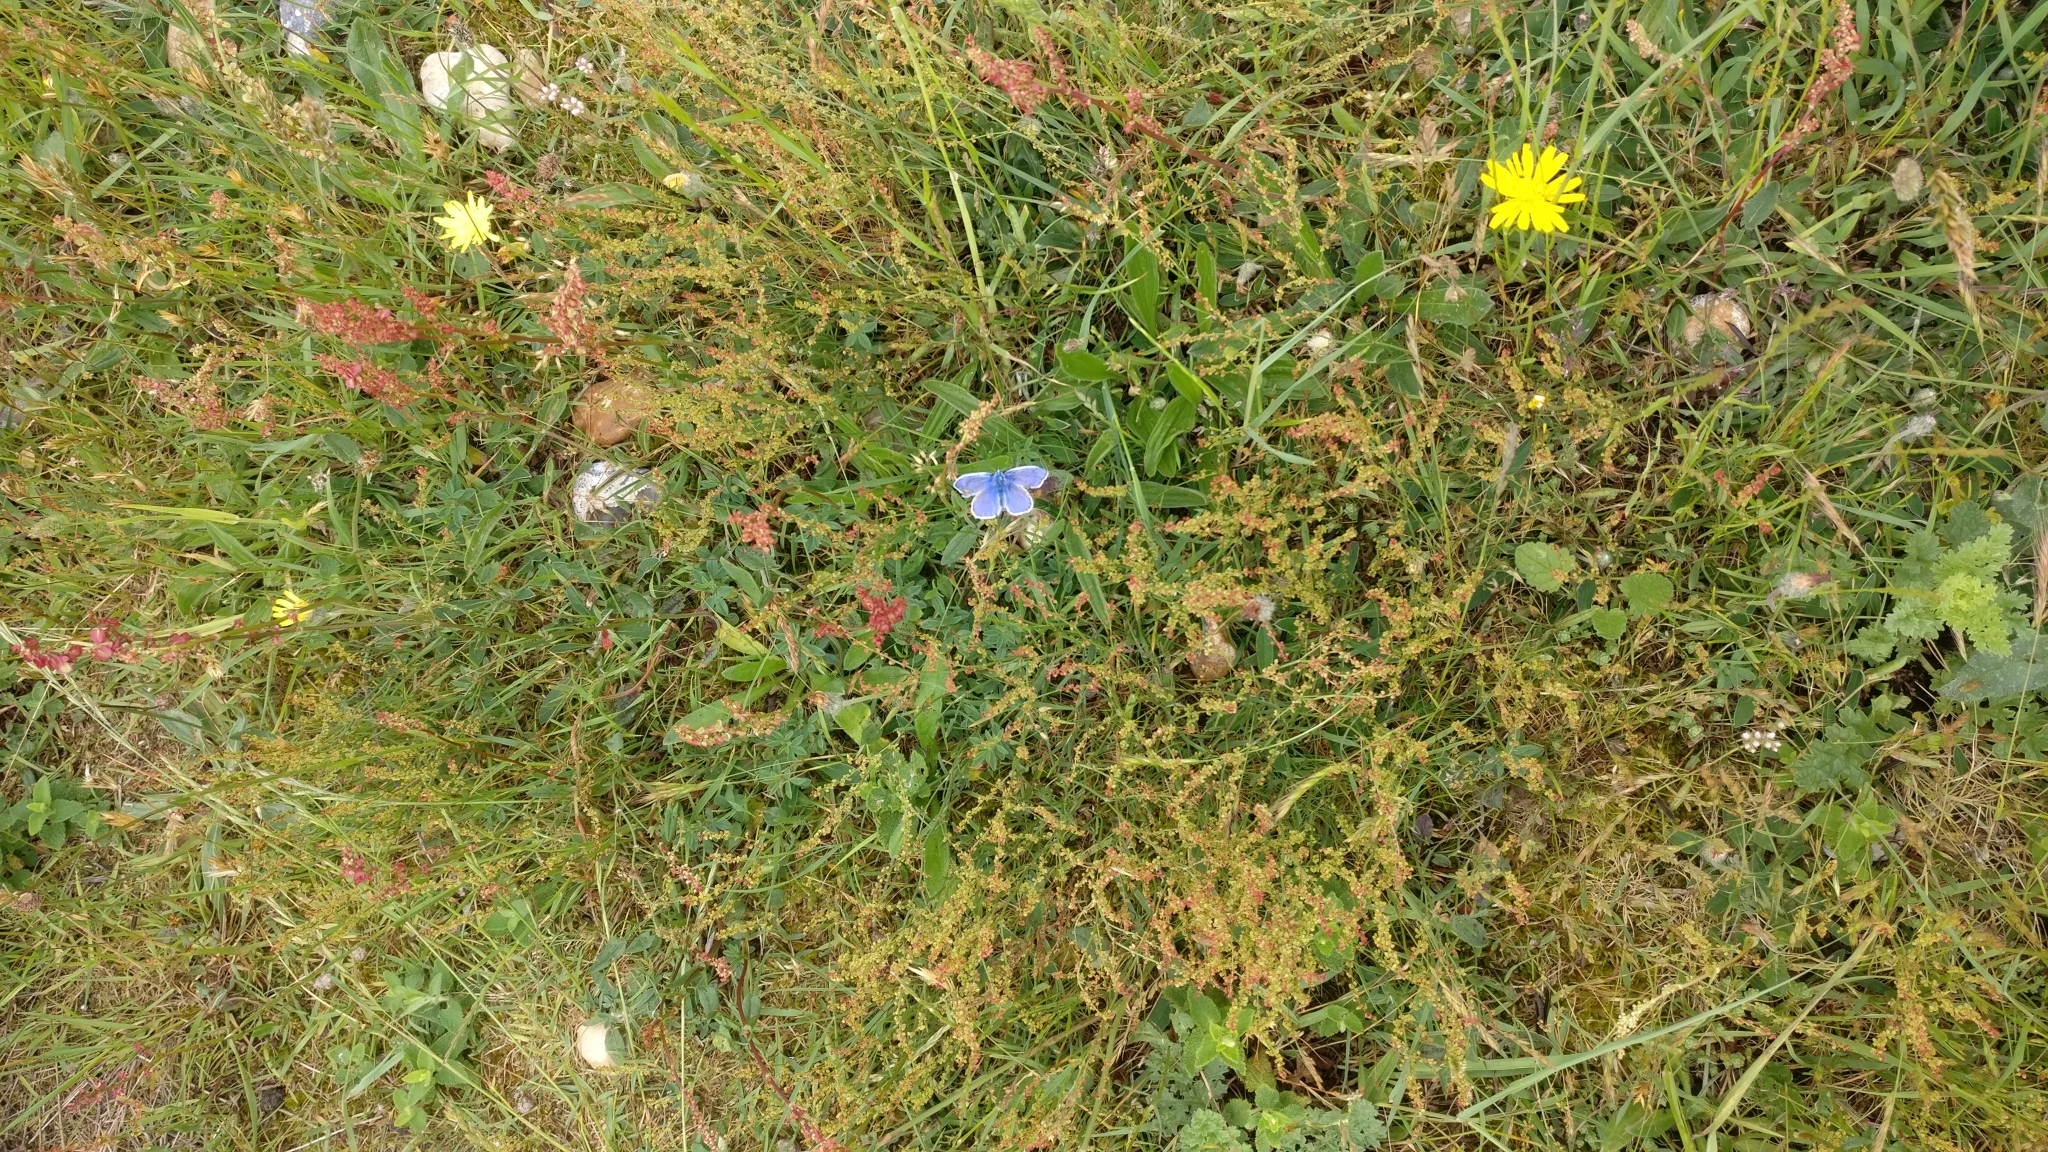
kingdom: Animalia
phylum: Arthropoda
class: Insecta
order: Lepidoptera
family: Lycaenidae
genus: Polyommatus
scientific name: Polyommatus icarus
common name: Common blue
